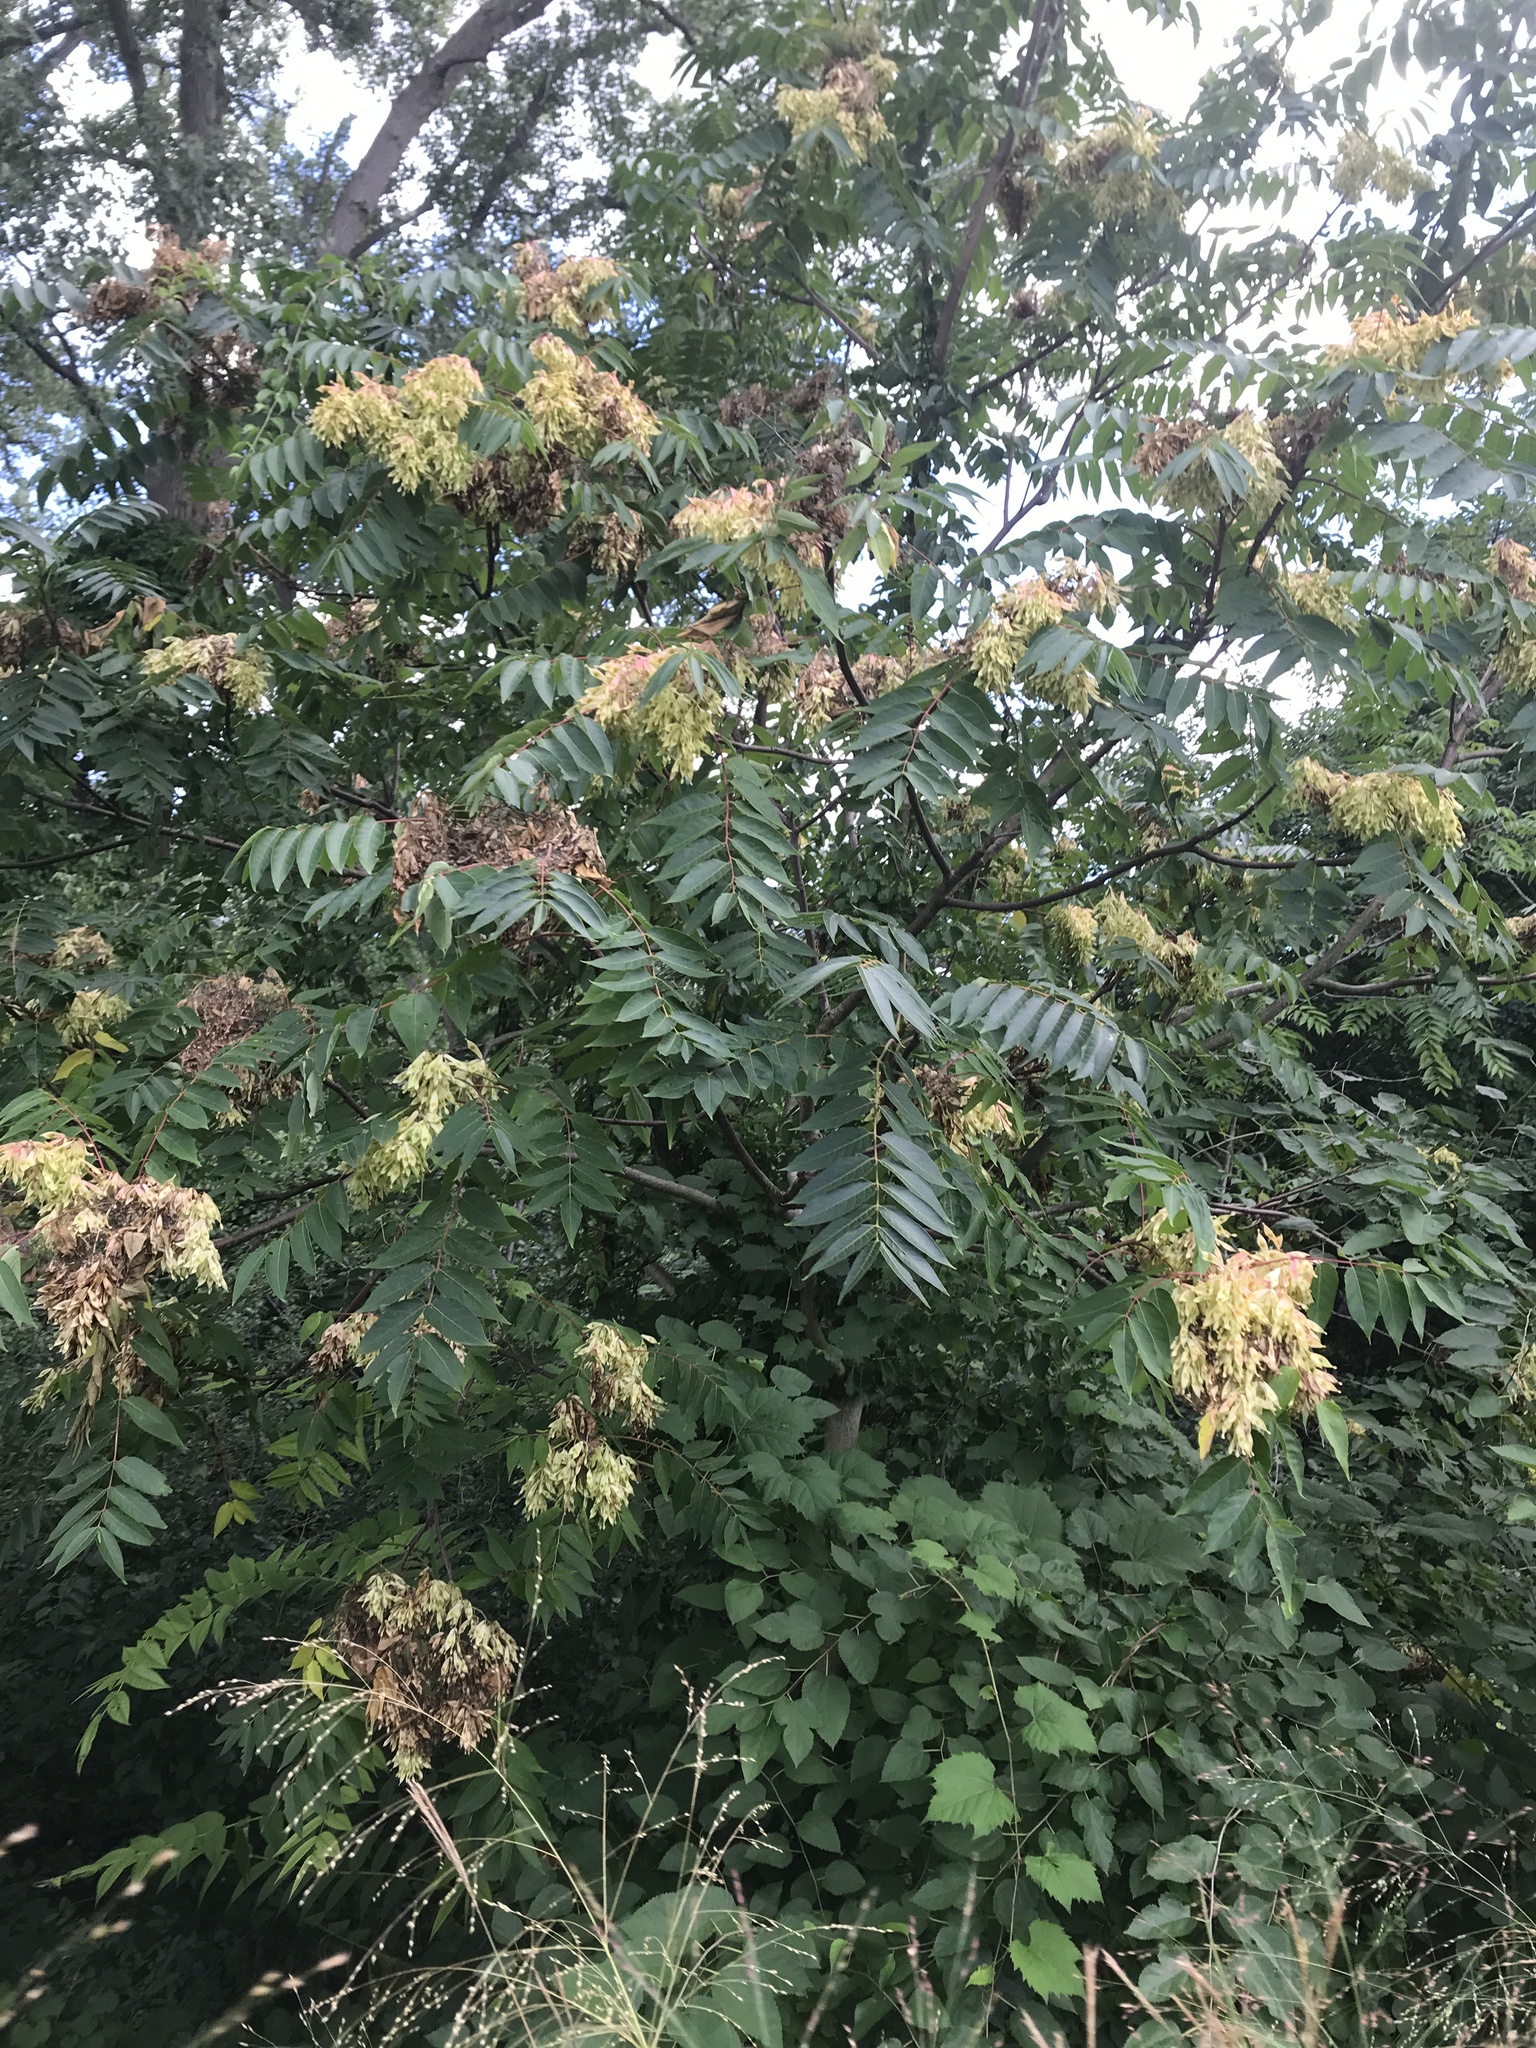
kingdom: Plantae
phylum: Tracheophyta
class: Magnoliopsida
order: Sapindales
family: Simaroubaceae
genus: Ailanthus
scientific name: Ailanthus altissima
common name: Tree-of-heaven
